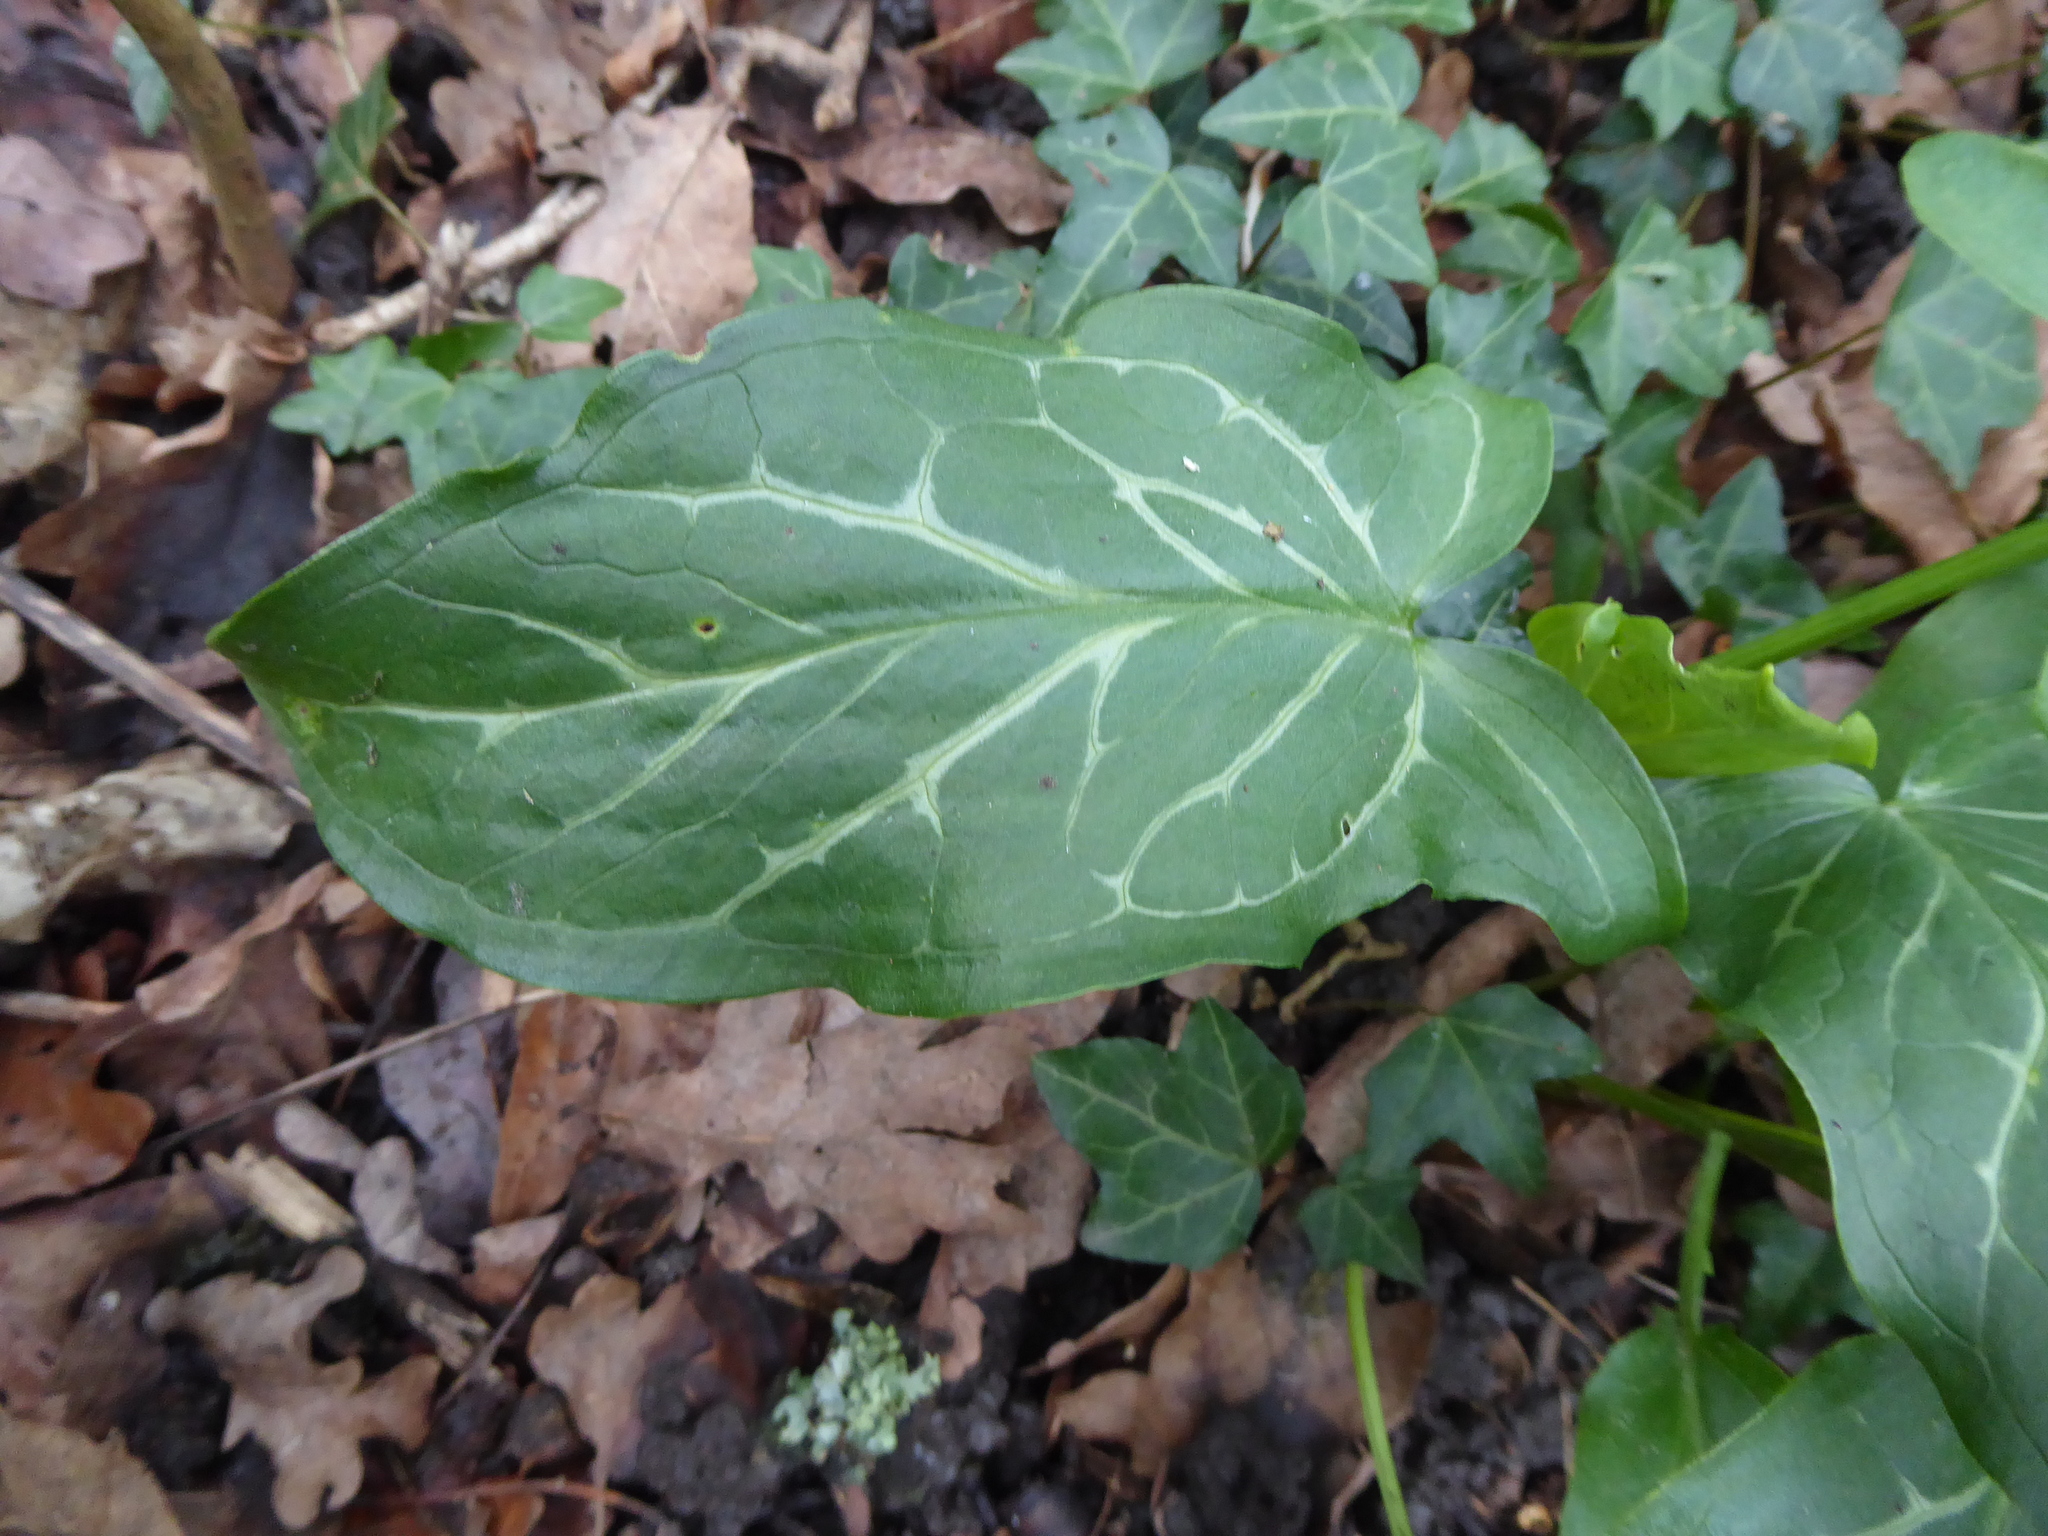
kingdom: Plantae
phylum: Tracheophyta
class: Liliopsida
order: Alismatales
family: Araceae
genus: Arum
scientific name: Arum italicum
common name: Italian lords-and-ladies
